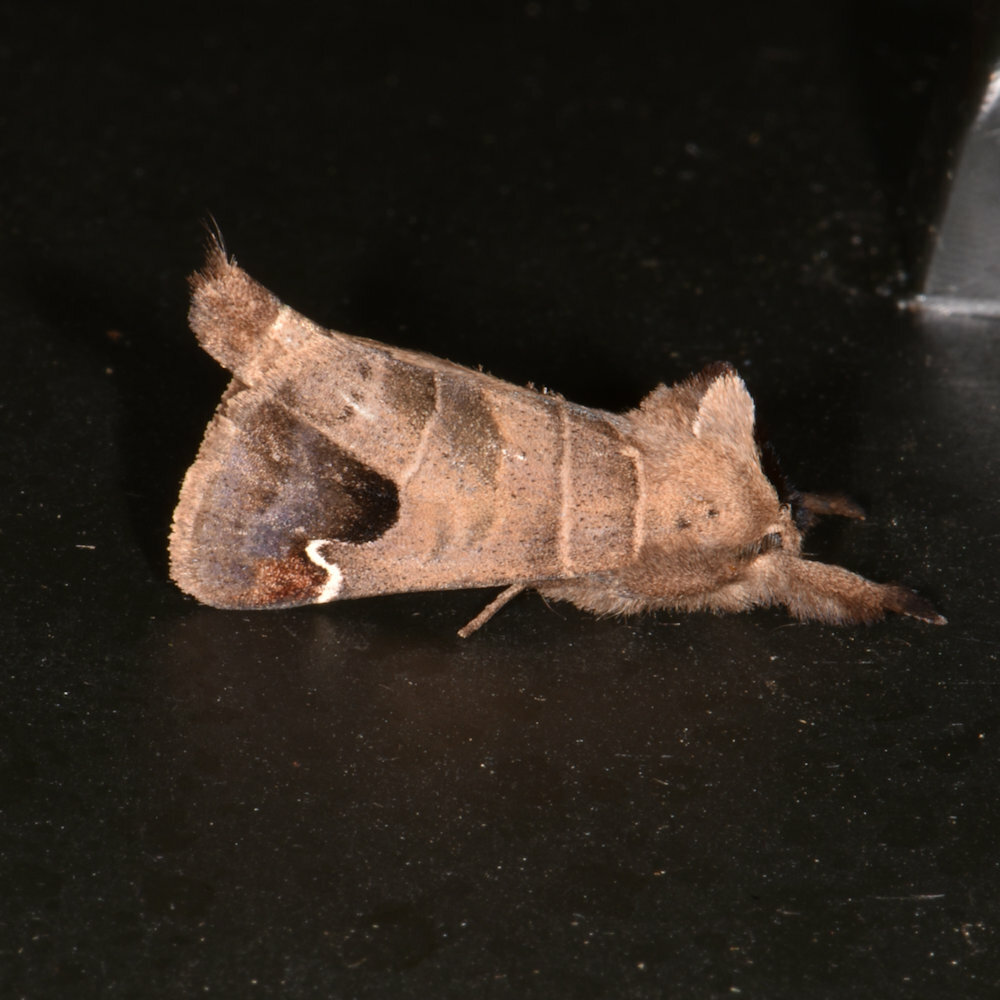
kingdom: Animalia
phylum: Arthropoda
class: Insecta
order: Lepidoptera
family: Notodontidae
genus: Clostera
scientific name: Clostera albosigma
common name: Sigmoid prominent
